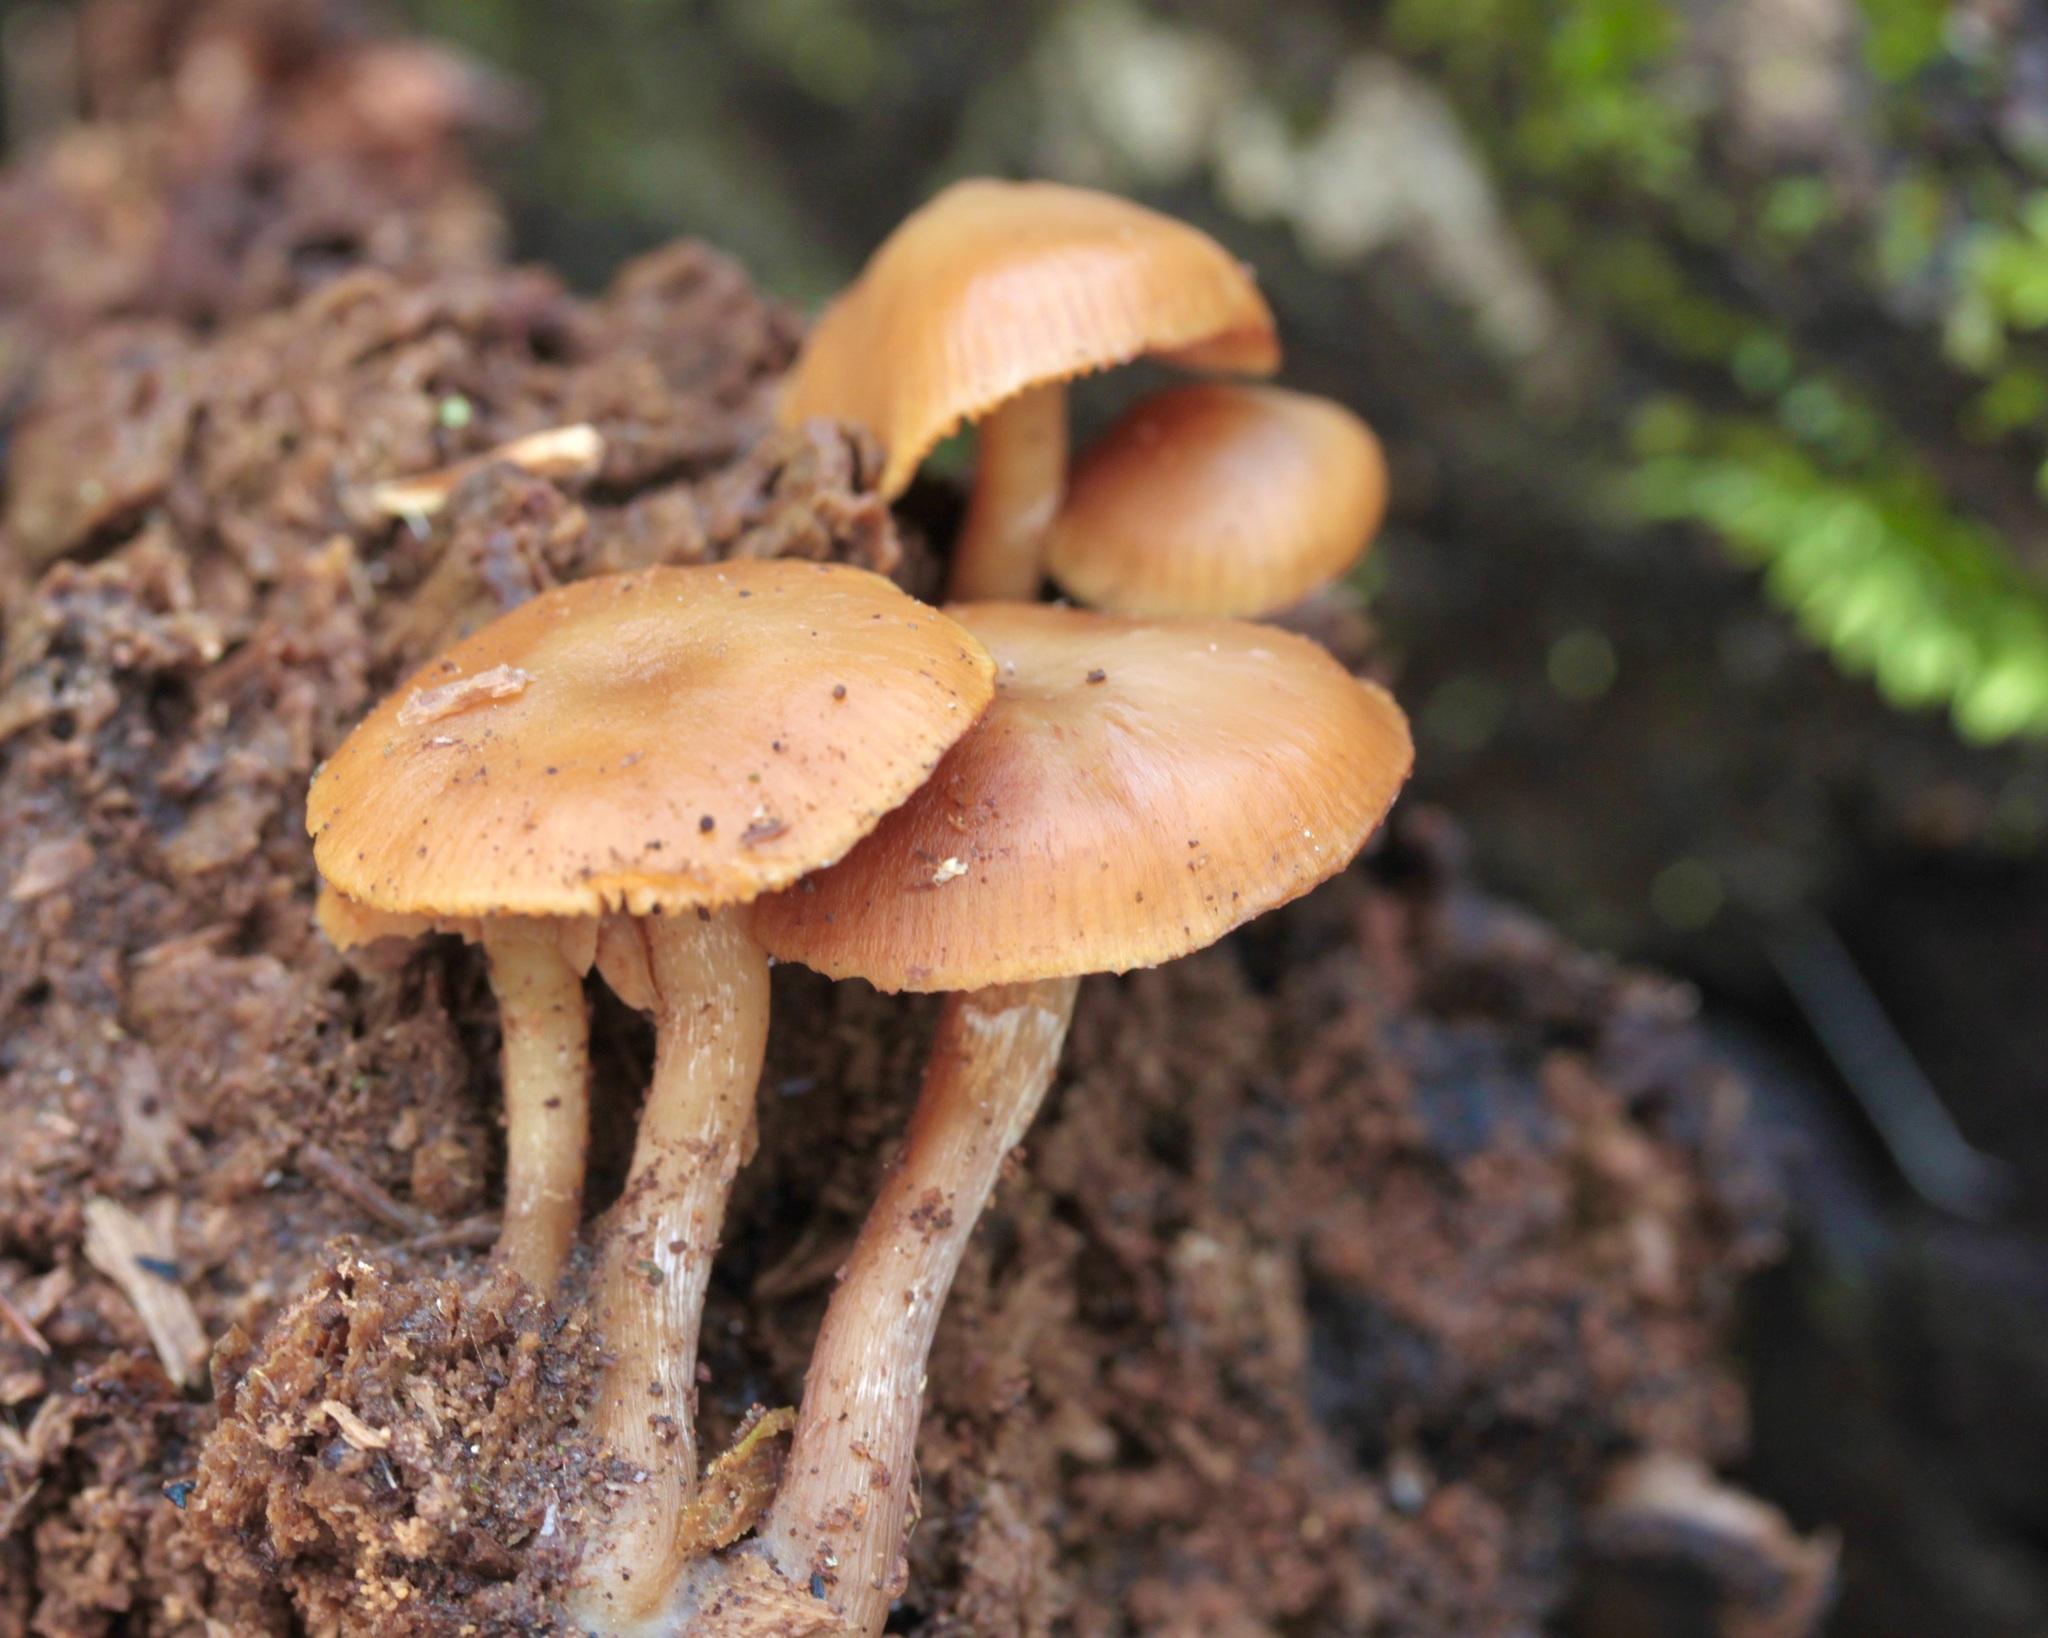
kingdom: Fungi
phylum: Basidiomycota
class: Agaricomycetes
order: Agaricales
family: Hymenogastraceae
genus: Galerina
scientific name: Galerina marginata
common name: Funeral bell
